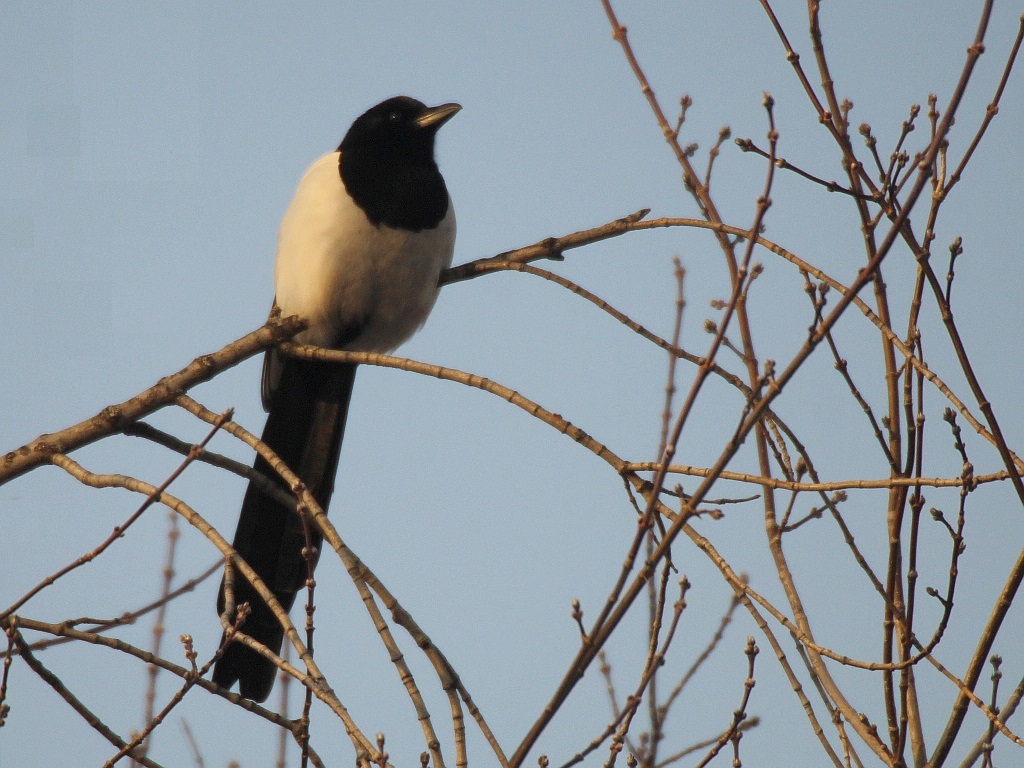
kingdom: Animalia
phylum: Chordata
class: Aves
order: Passeriformes
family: Corvidae
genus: Pica
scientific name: Pica pica
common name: Eurasian magpie
